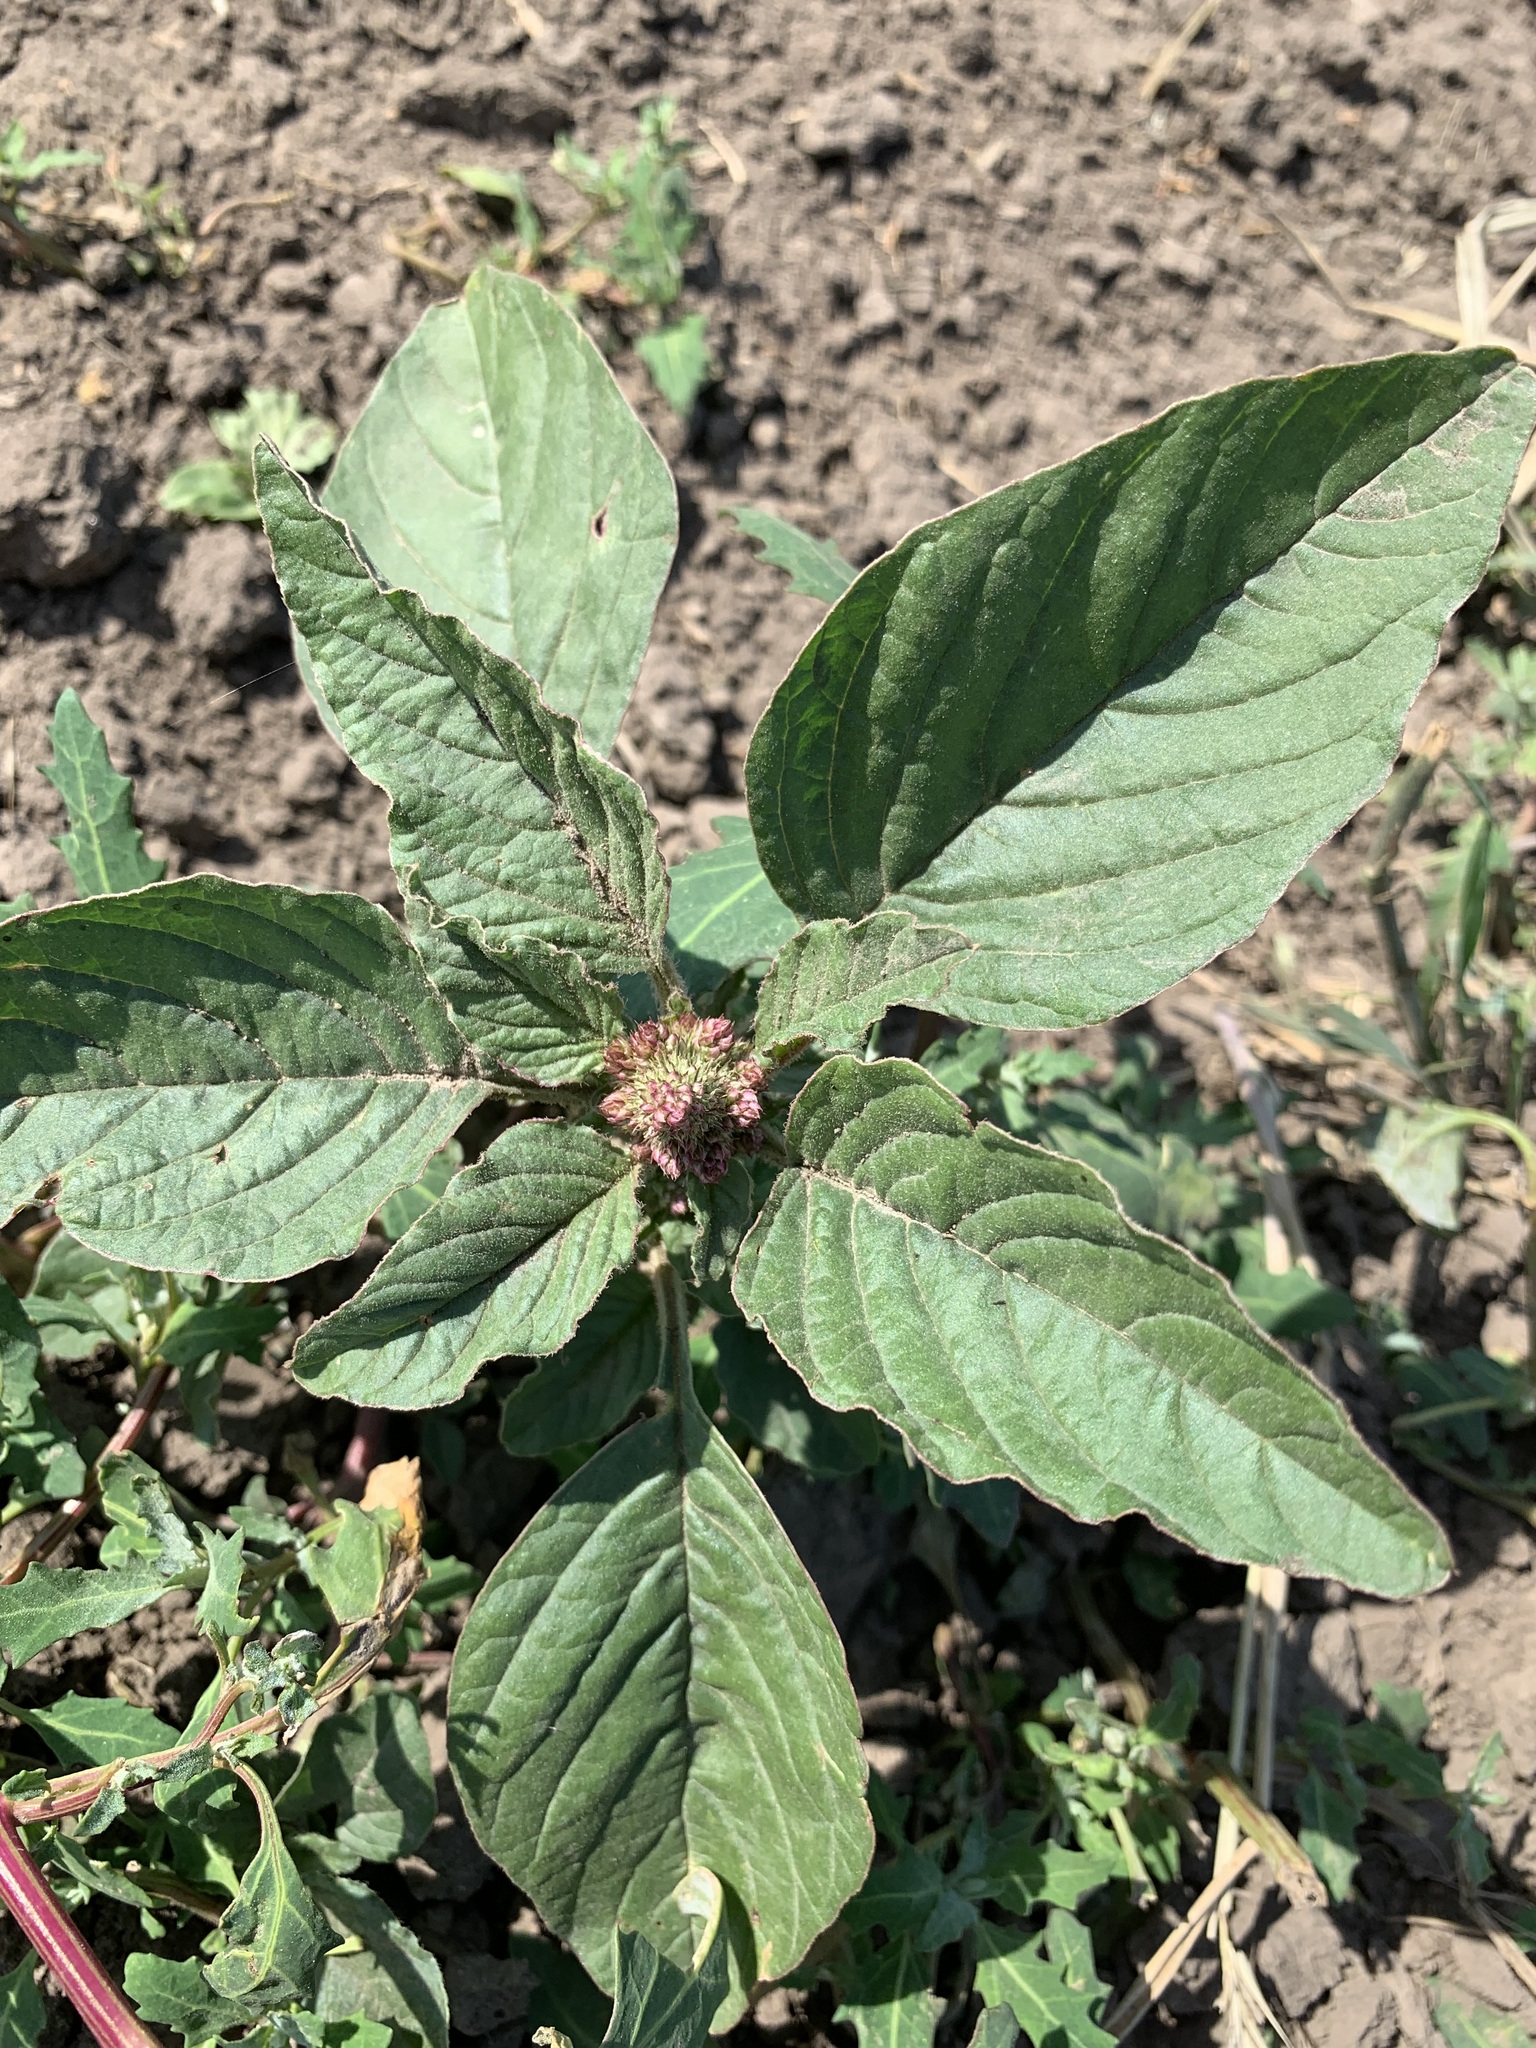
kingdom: Plantae
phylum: Tracheophyta
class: Magnoliopsida
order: Caryophyllales
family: Amaranthaceae
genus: Amaranthus
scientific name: Amaranthus retroflexus
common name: Redroot amaranth
